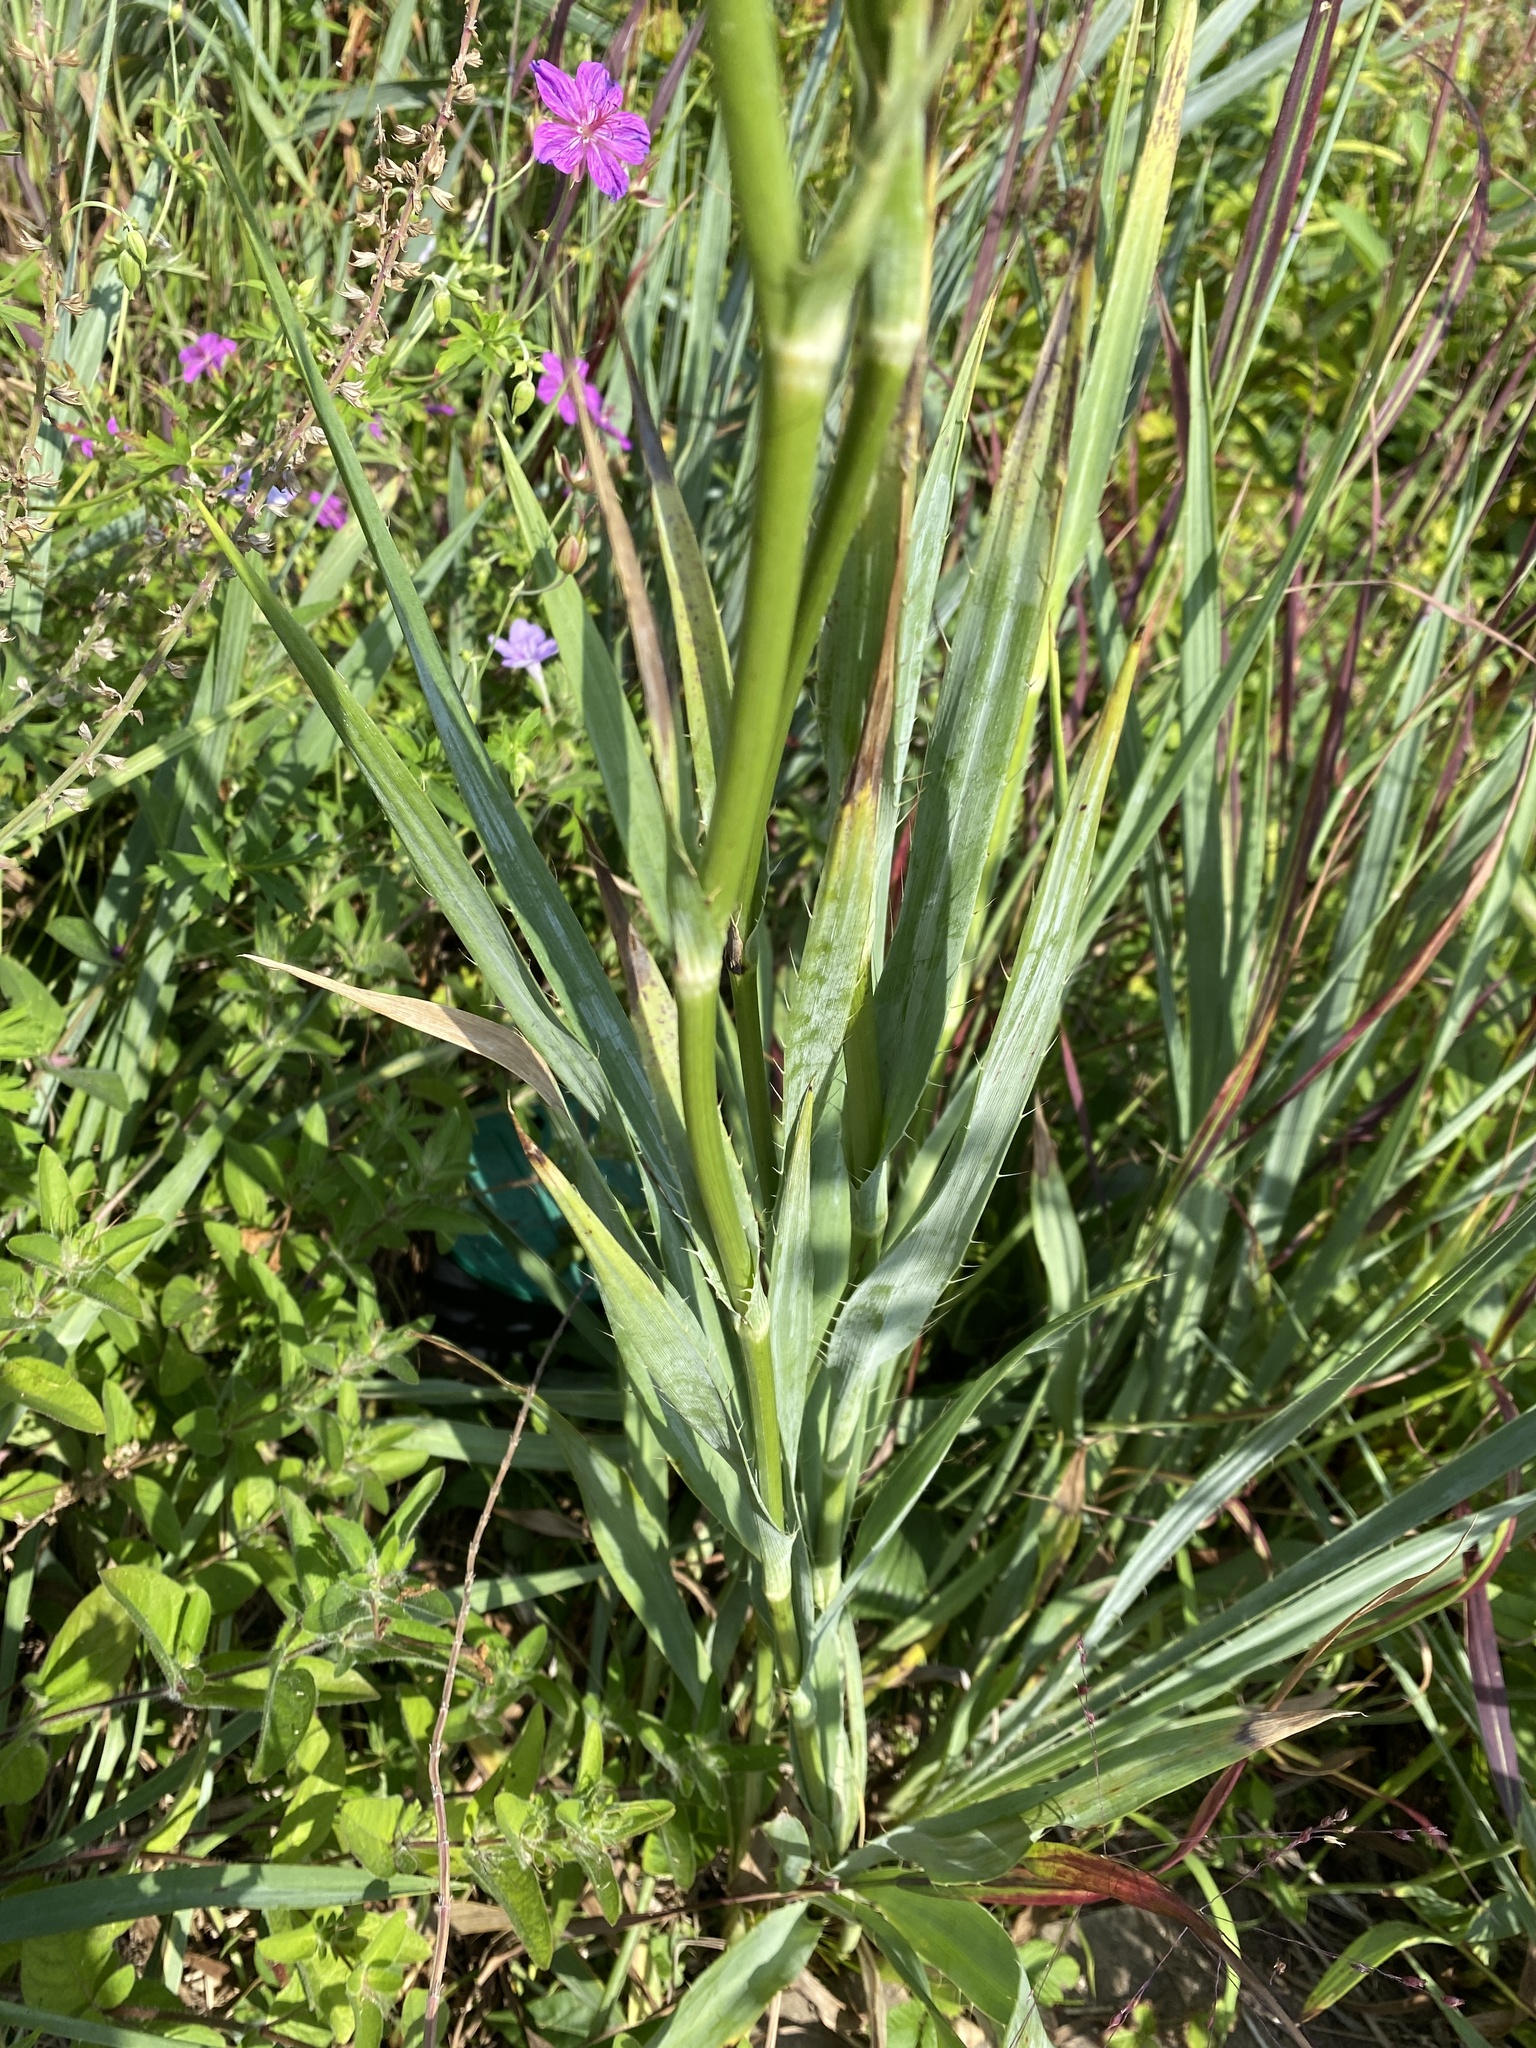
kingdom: Plantae
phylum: Tracheophyta
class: Magnoliopsida
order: Apiales
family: Apiaceae
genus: Eryngium
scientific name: Eryngium yuccifolium
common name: Button eryngo
